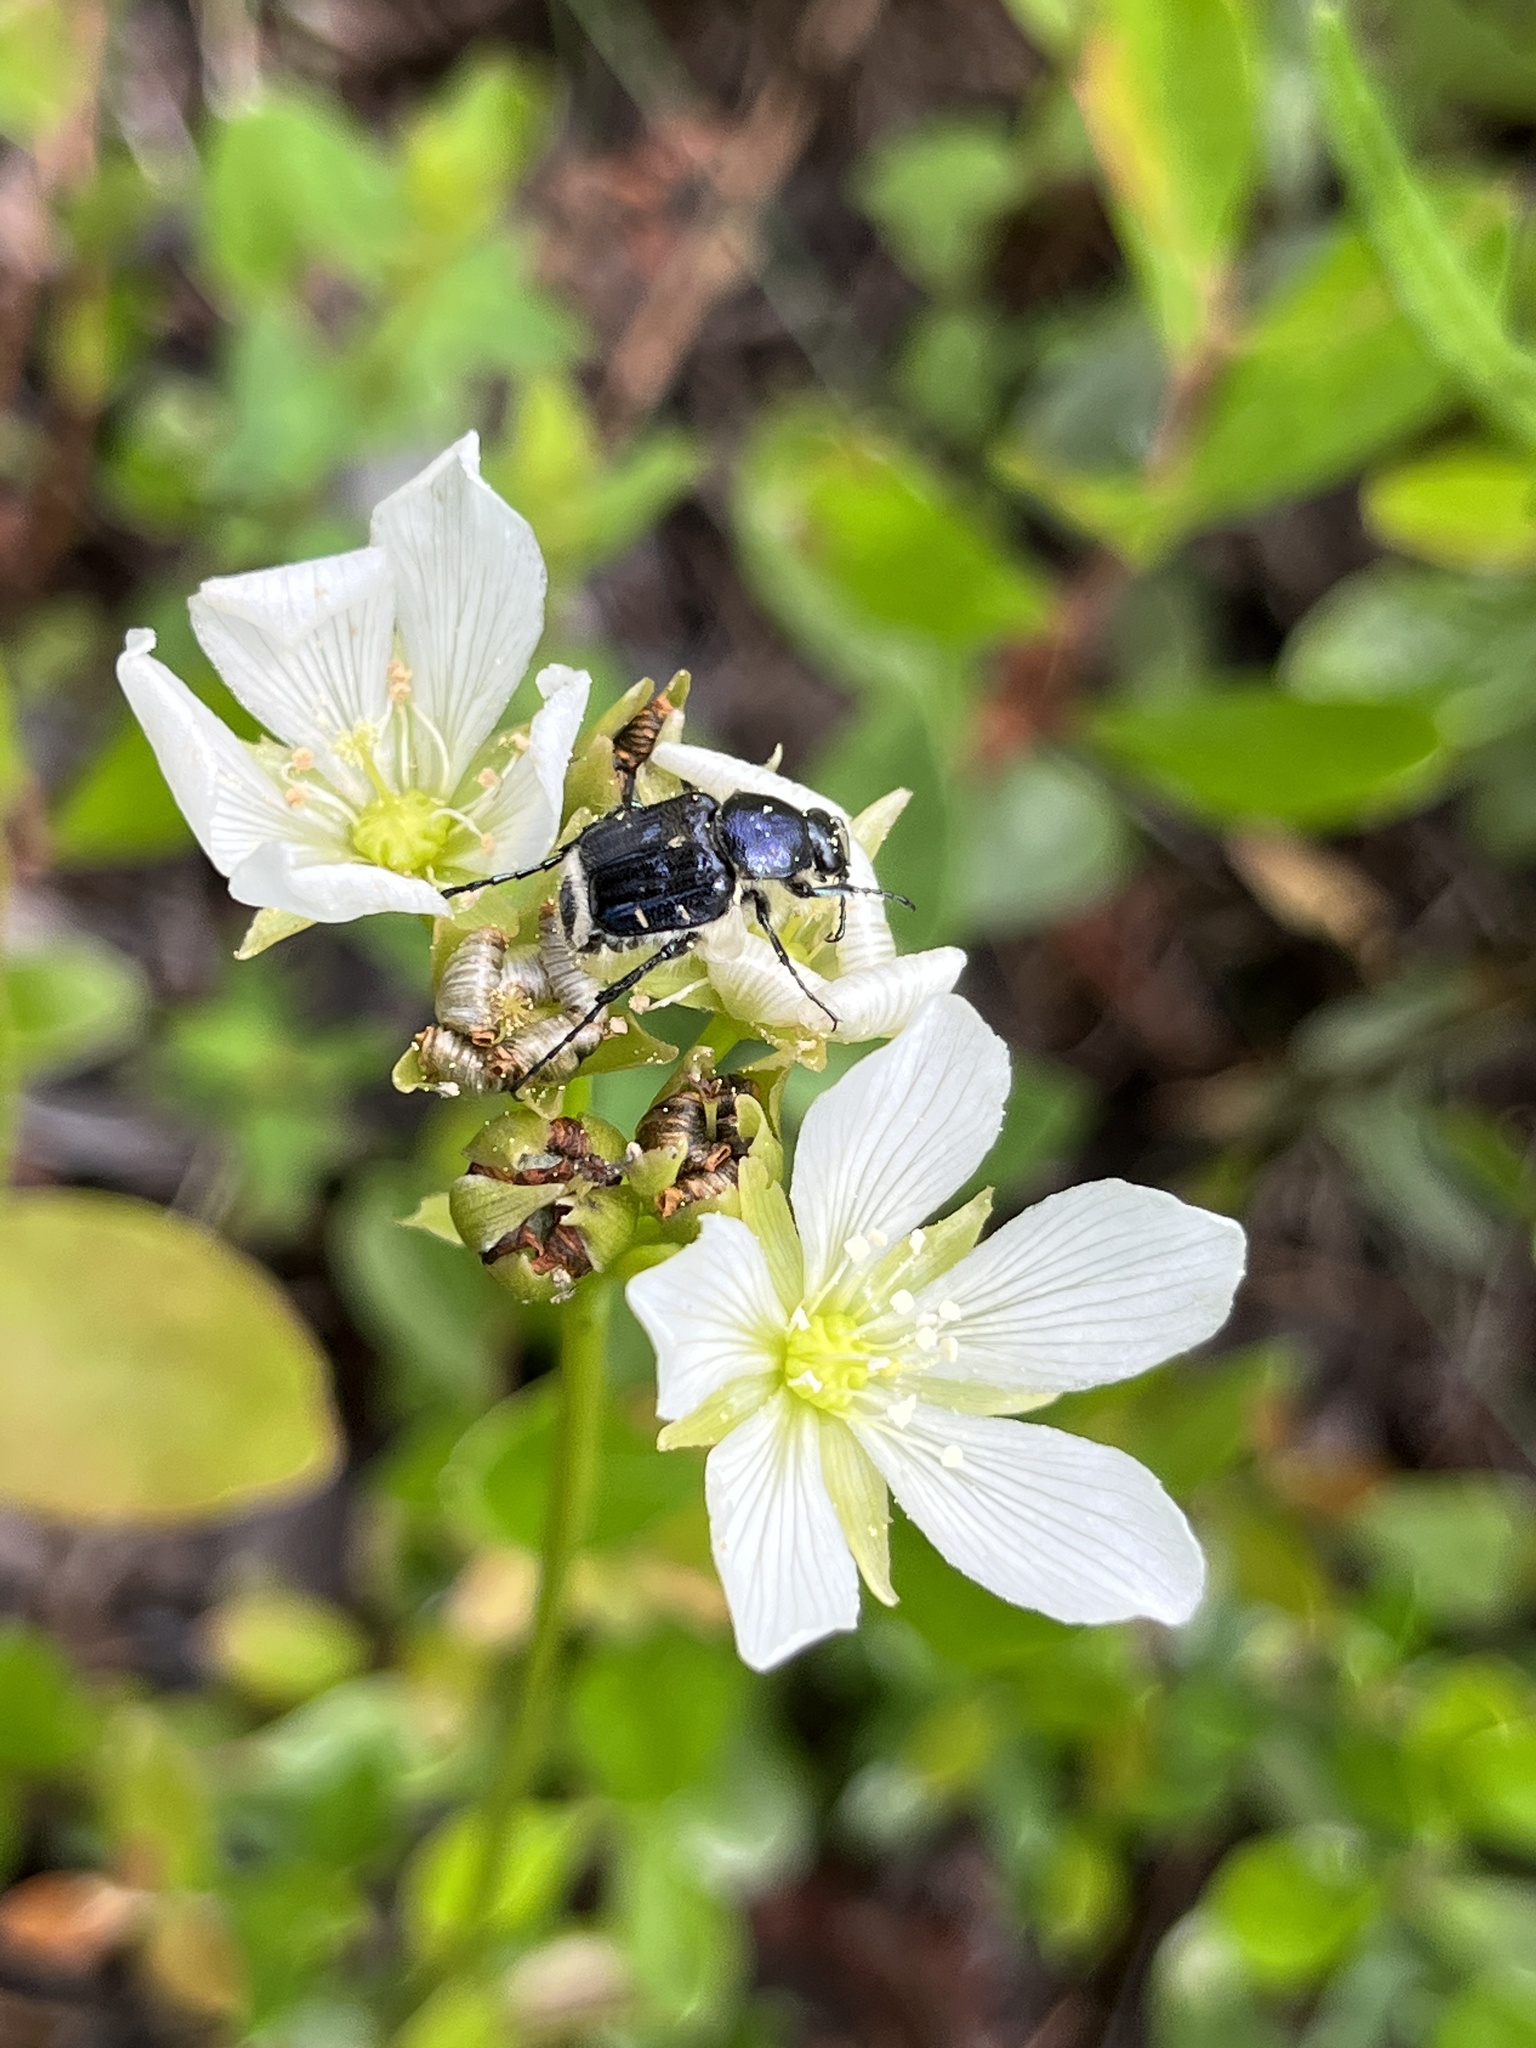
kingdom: Animalia
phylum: Arthropoda
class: Insecta
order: Coleoptera
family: Scarabaeidae
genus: Trichiotinus
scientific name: Trichiotinus lunulatus
